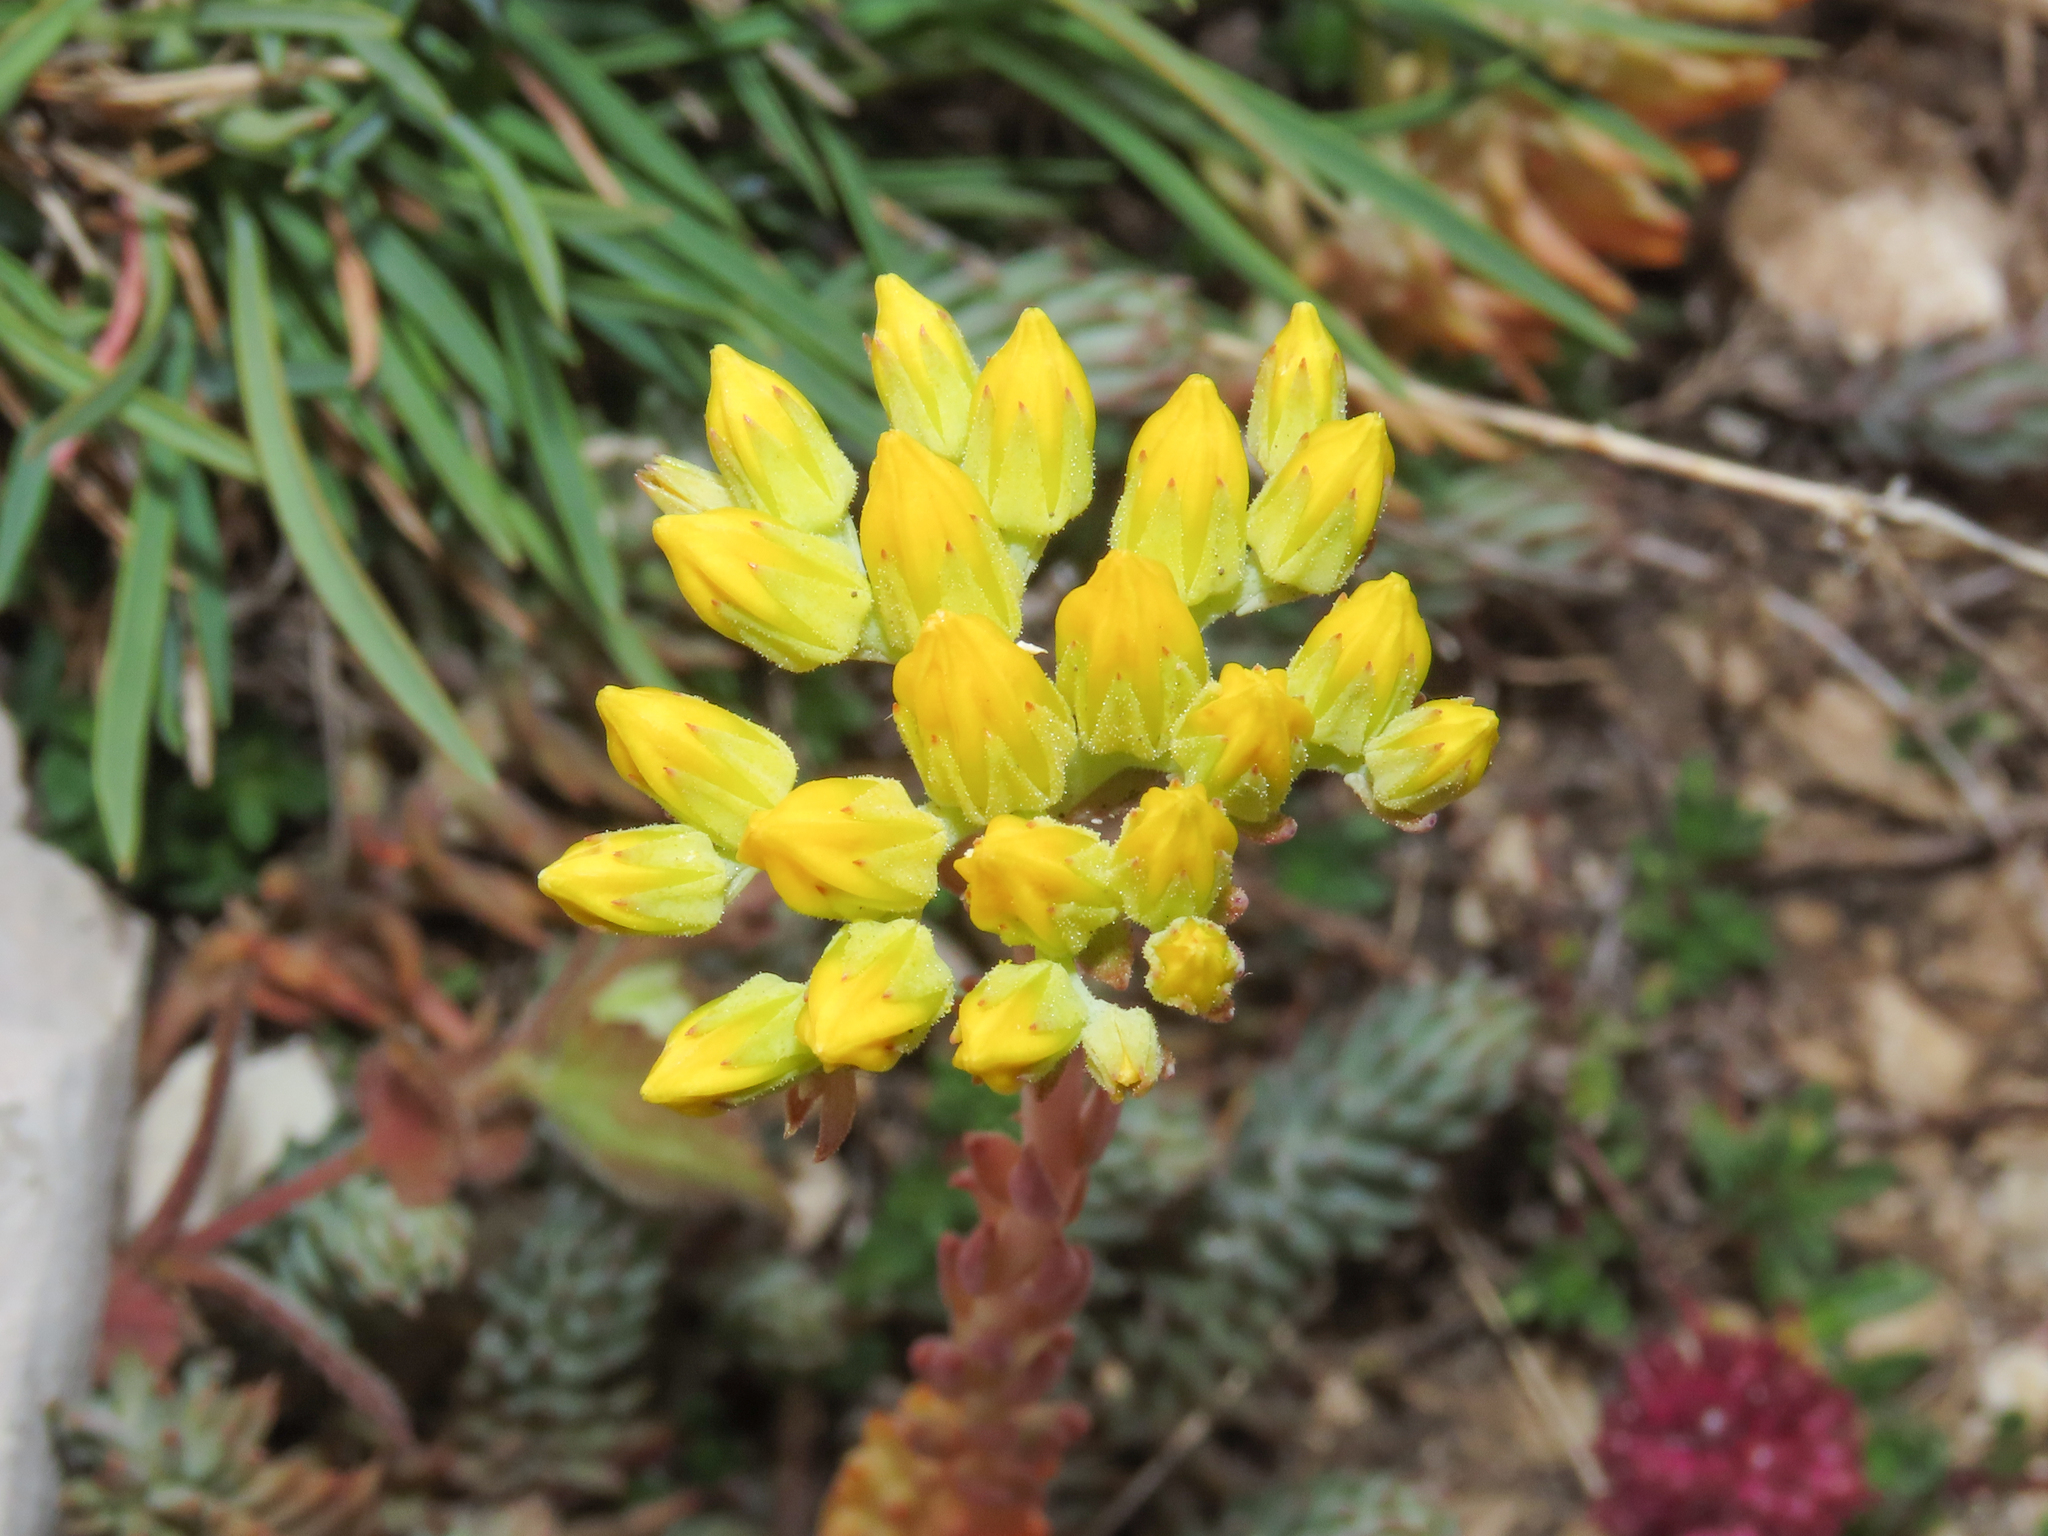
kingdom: Plantae
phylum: Tracheophyta
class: Magnoliopsida
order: Saxifragales
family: Crassulaceae
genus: Petrosedum
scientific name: Petrosedum montanum
